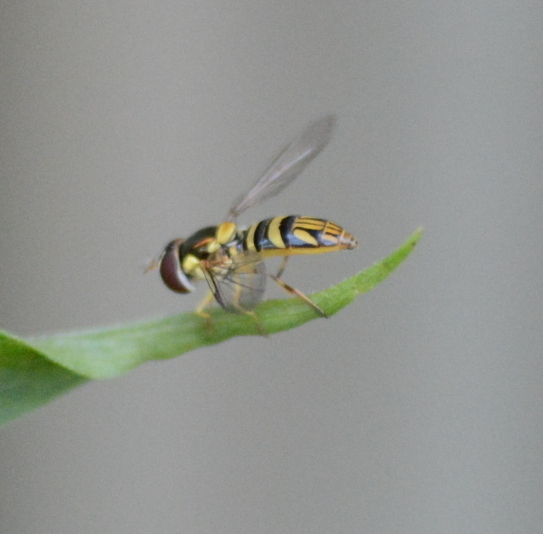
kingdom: Animalia
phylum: Arthropoda
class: Insecta
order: Diptera
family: Syrphidae
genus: Allograpta
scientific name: Allograpta obliqua
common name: Common oblique syrphid
